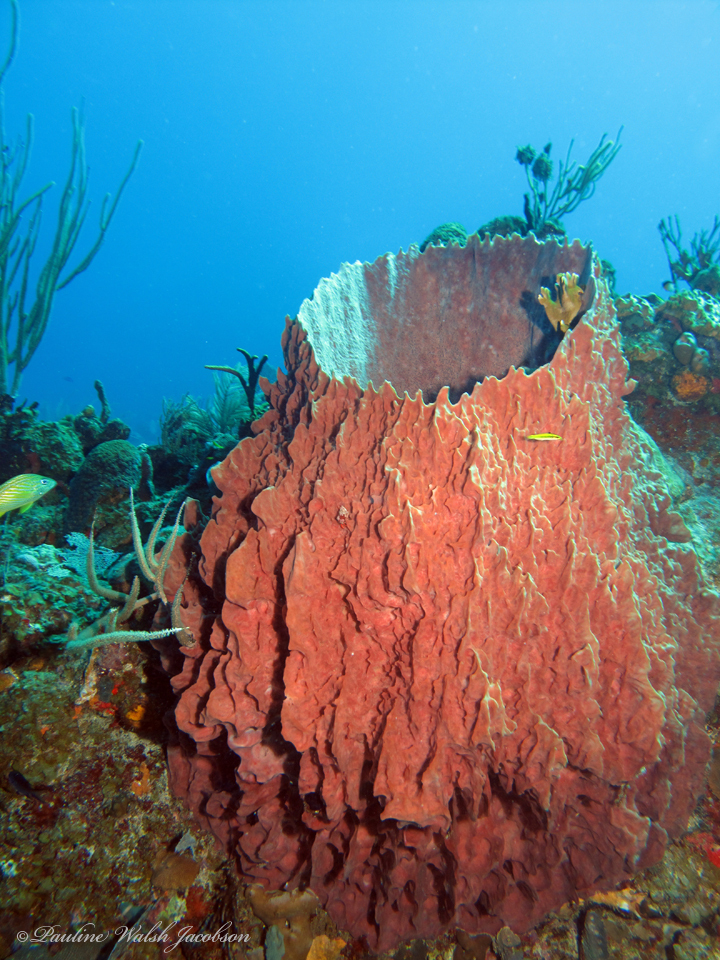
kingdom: Animalia
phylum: Porifera
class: Demospongiae
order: Haplosclerida
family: Petrosiidae
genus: Xestospongia
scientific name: Xestospongia muta
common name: Giant barrel sponge
